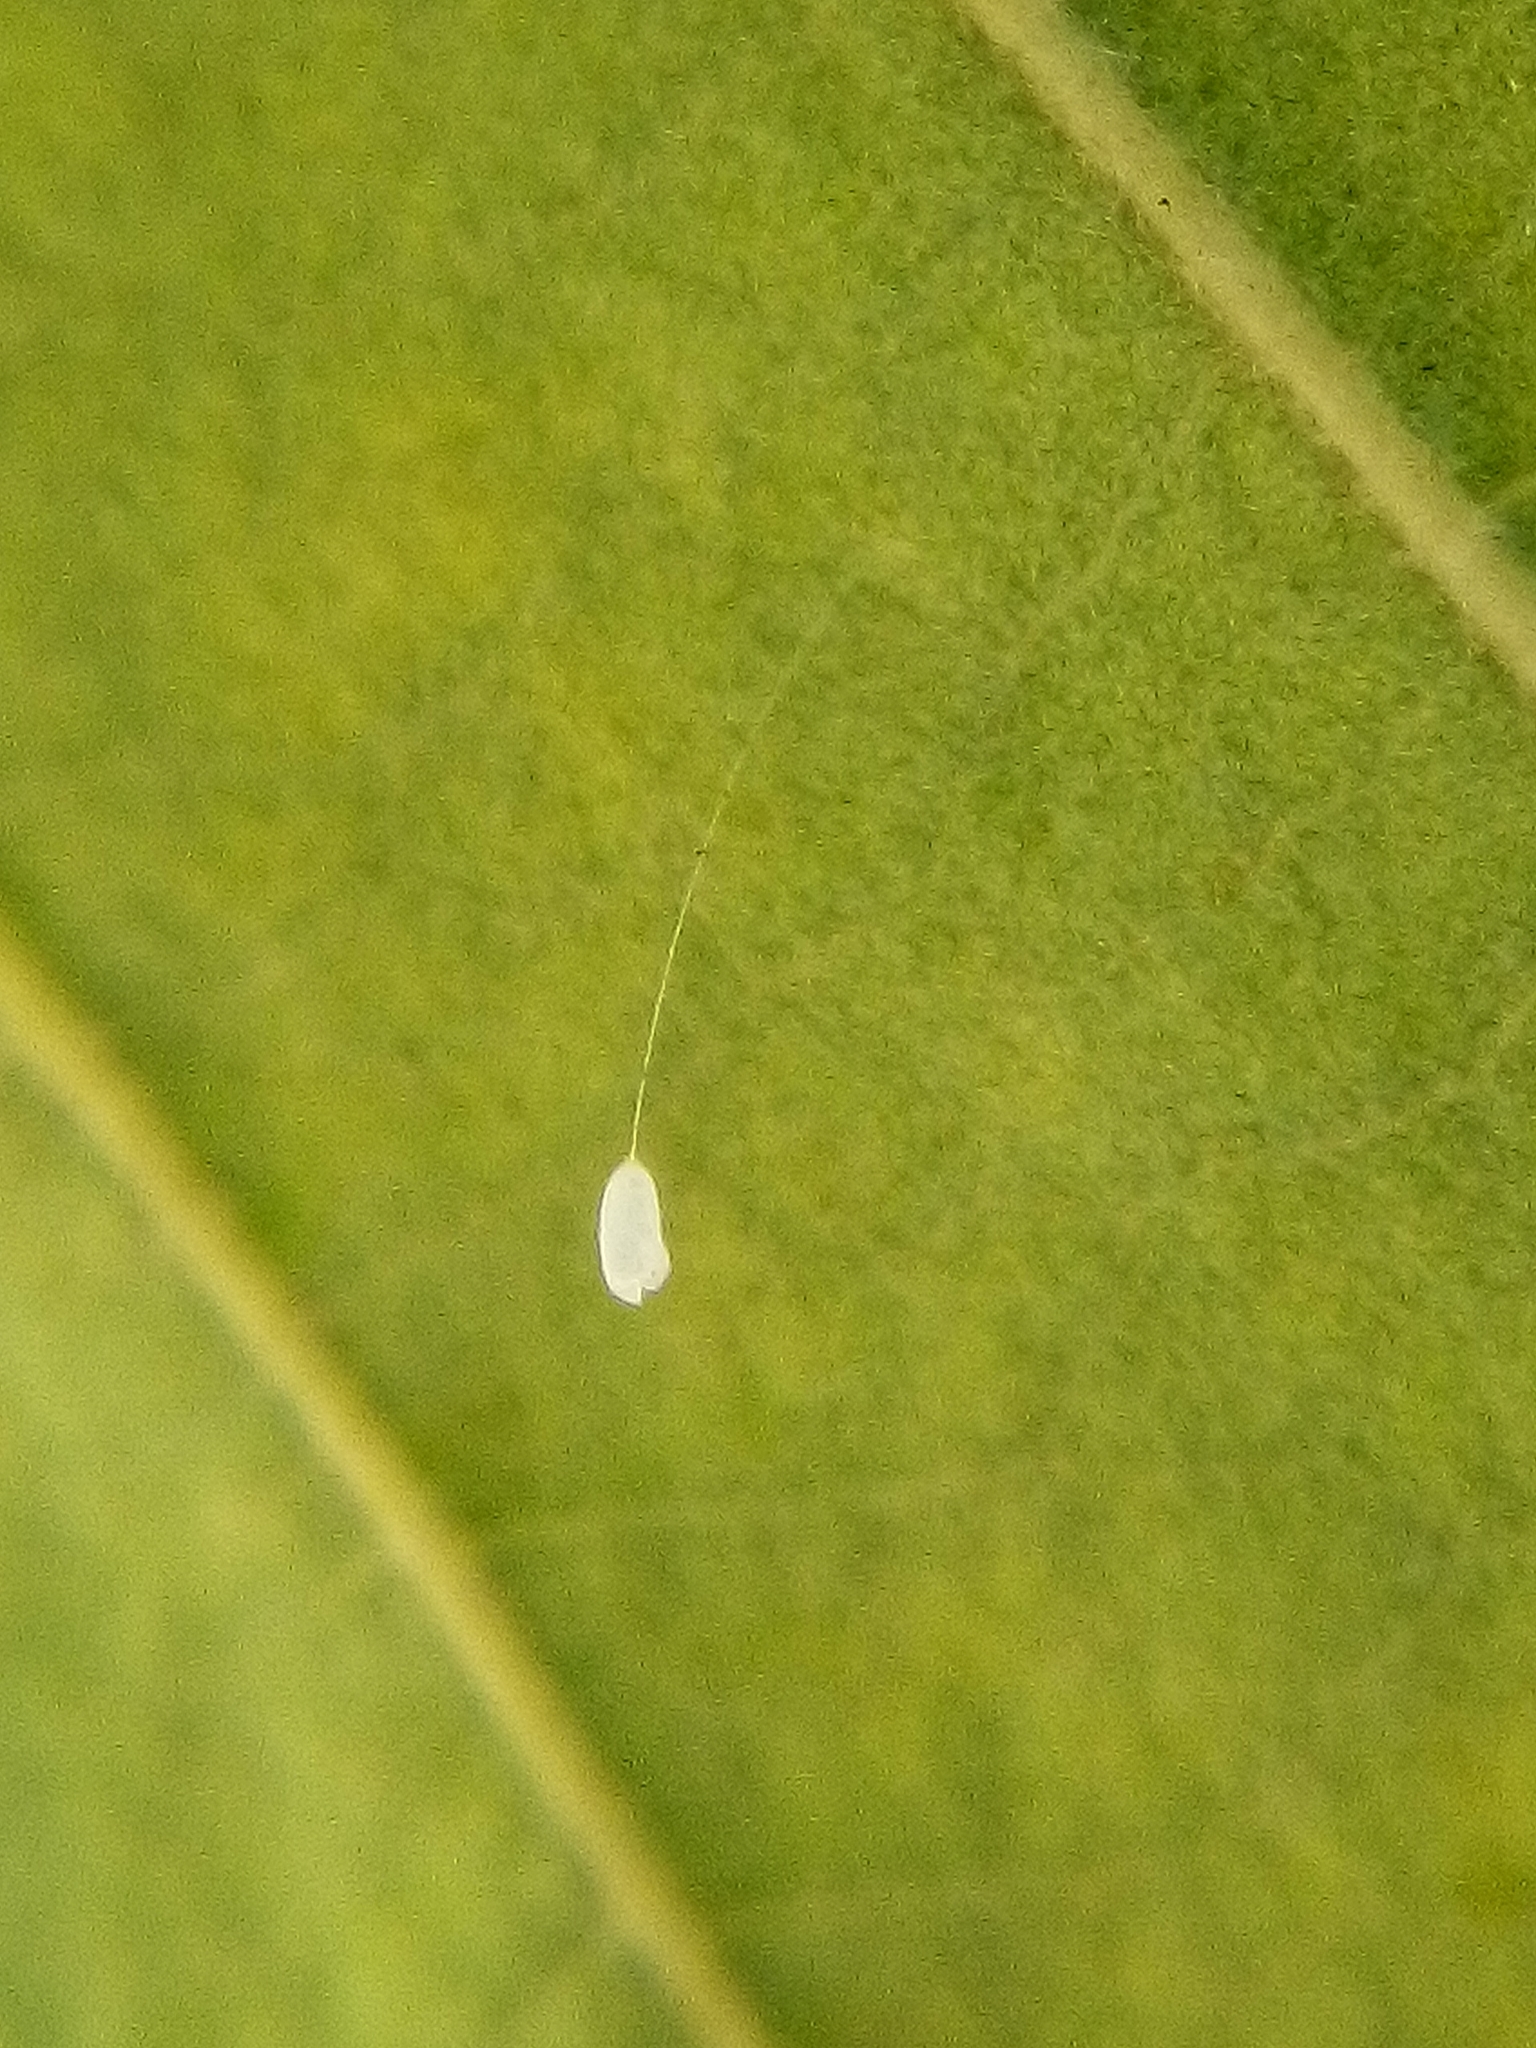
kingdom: Animalia
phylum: Arthropoda
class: Insecta
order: Neuroptera
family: Chrysopidae
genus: Mallada
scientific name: Mallada basalis
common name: Green lacewing
